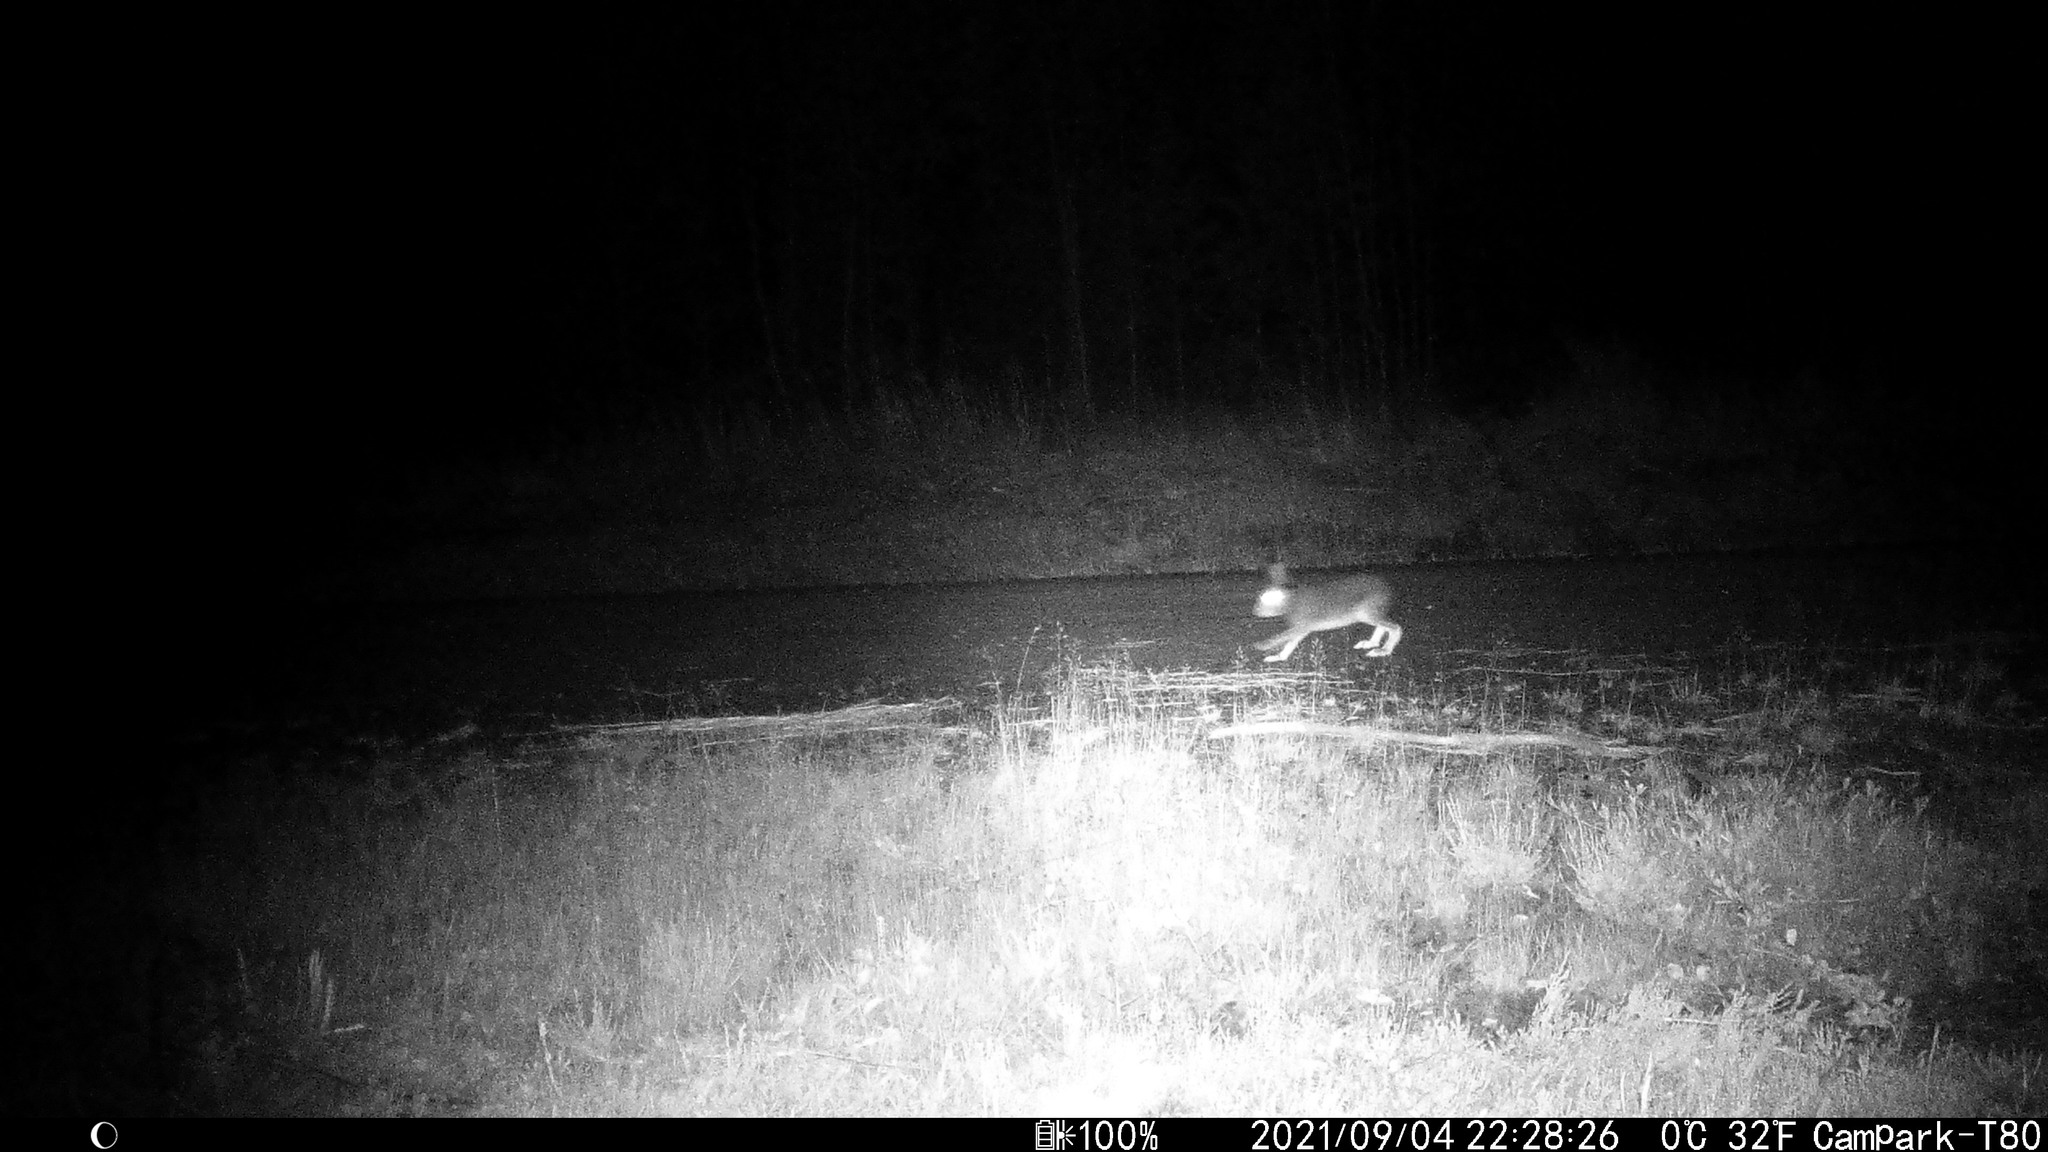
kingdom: Animalia
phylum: Chordata
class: Mammalia
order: Lagomorpha
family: Leporidae
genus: Lepus
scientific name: Lepus timidus
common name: Mountain hare
